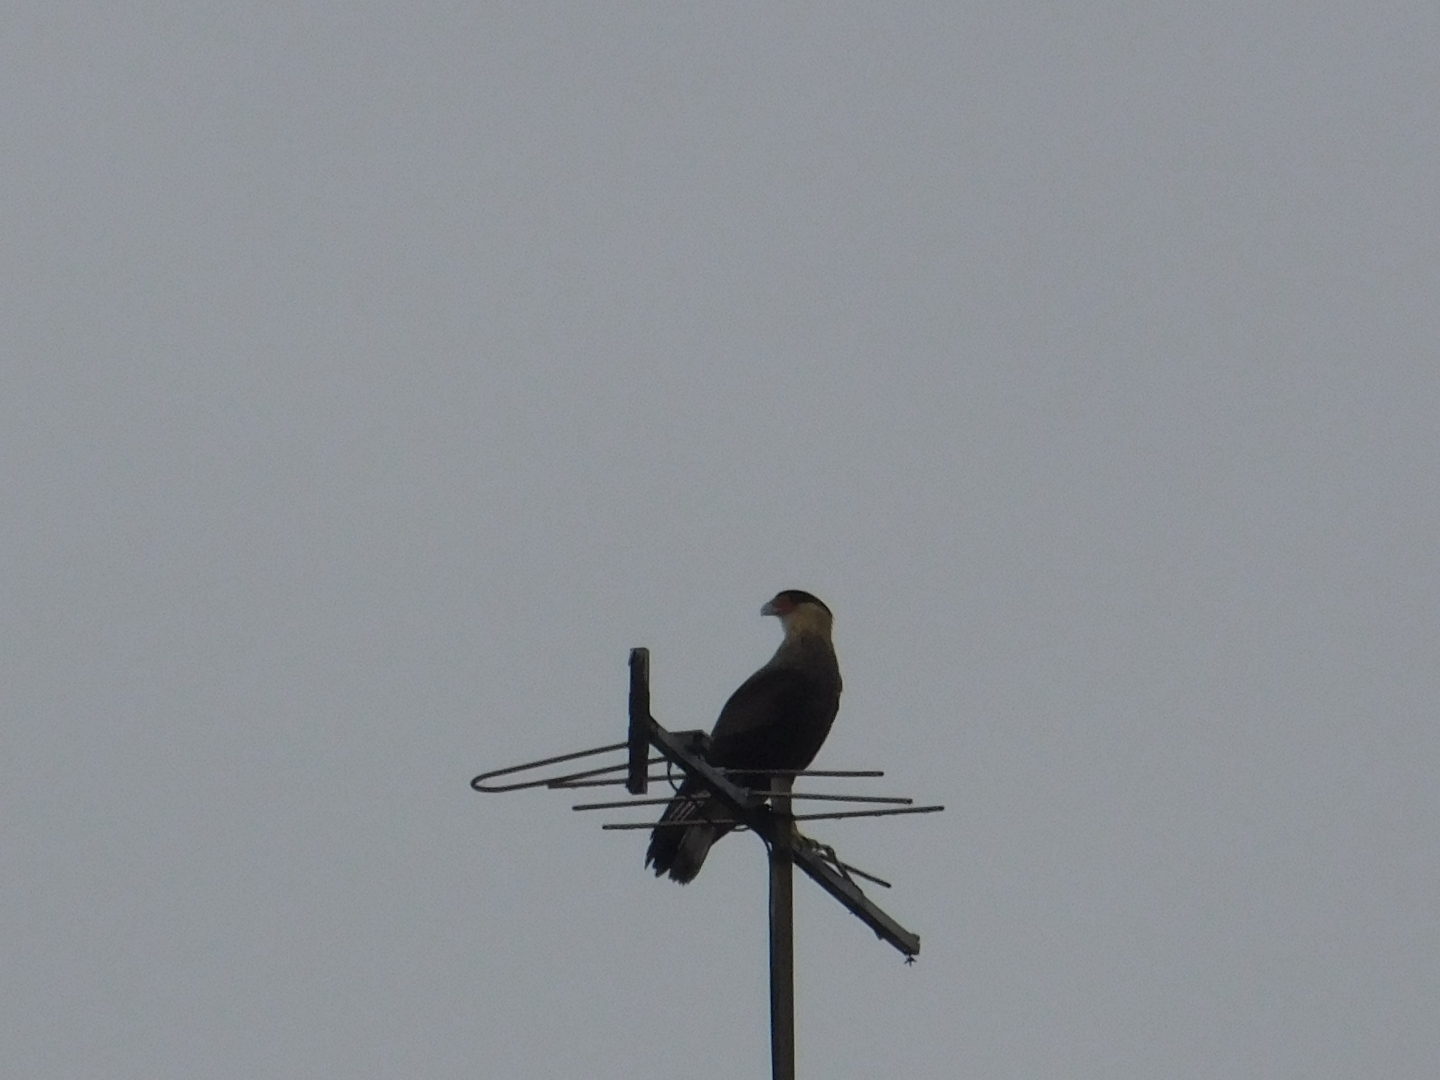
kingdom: Animalia
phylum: Chordata
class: Aves
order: Falconiformes
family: Falconidae
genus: Caracara
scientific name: Caracara plancus
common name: Southern caracara
